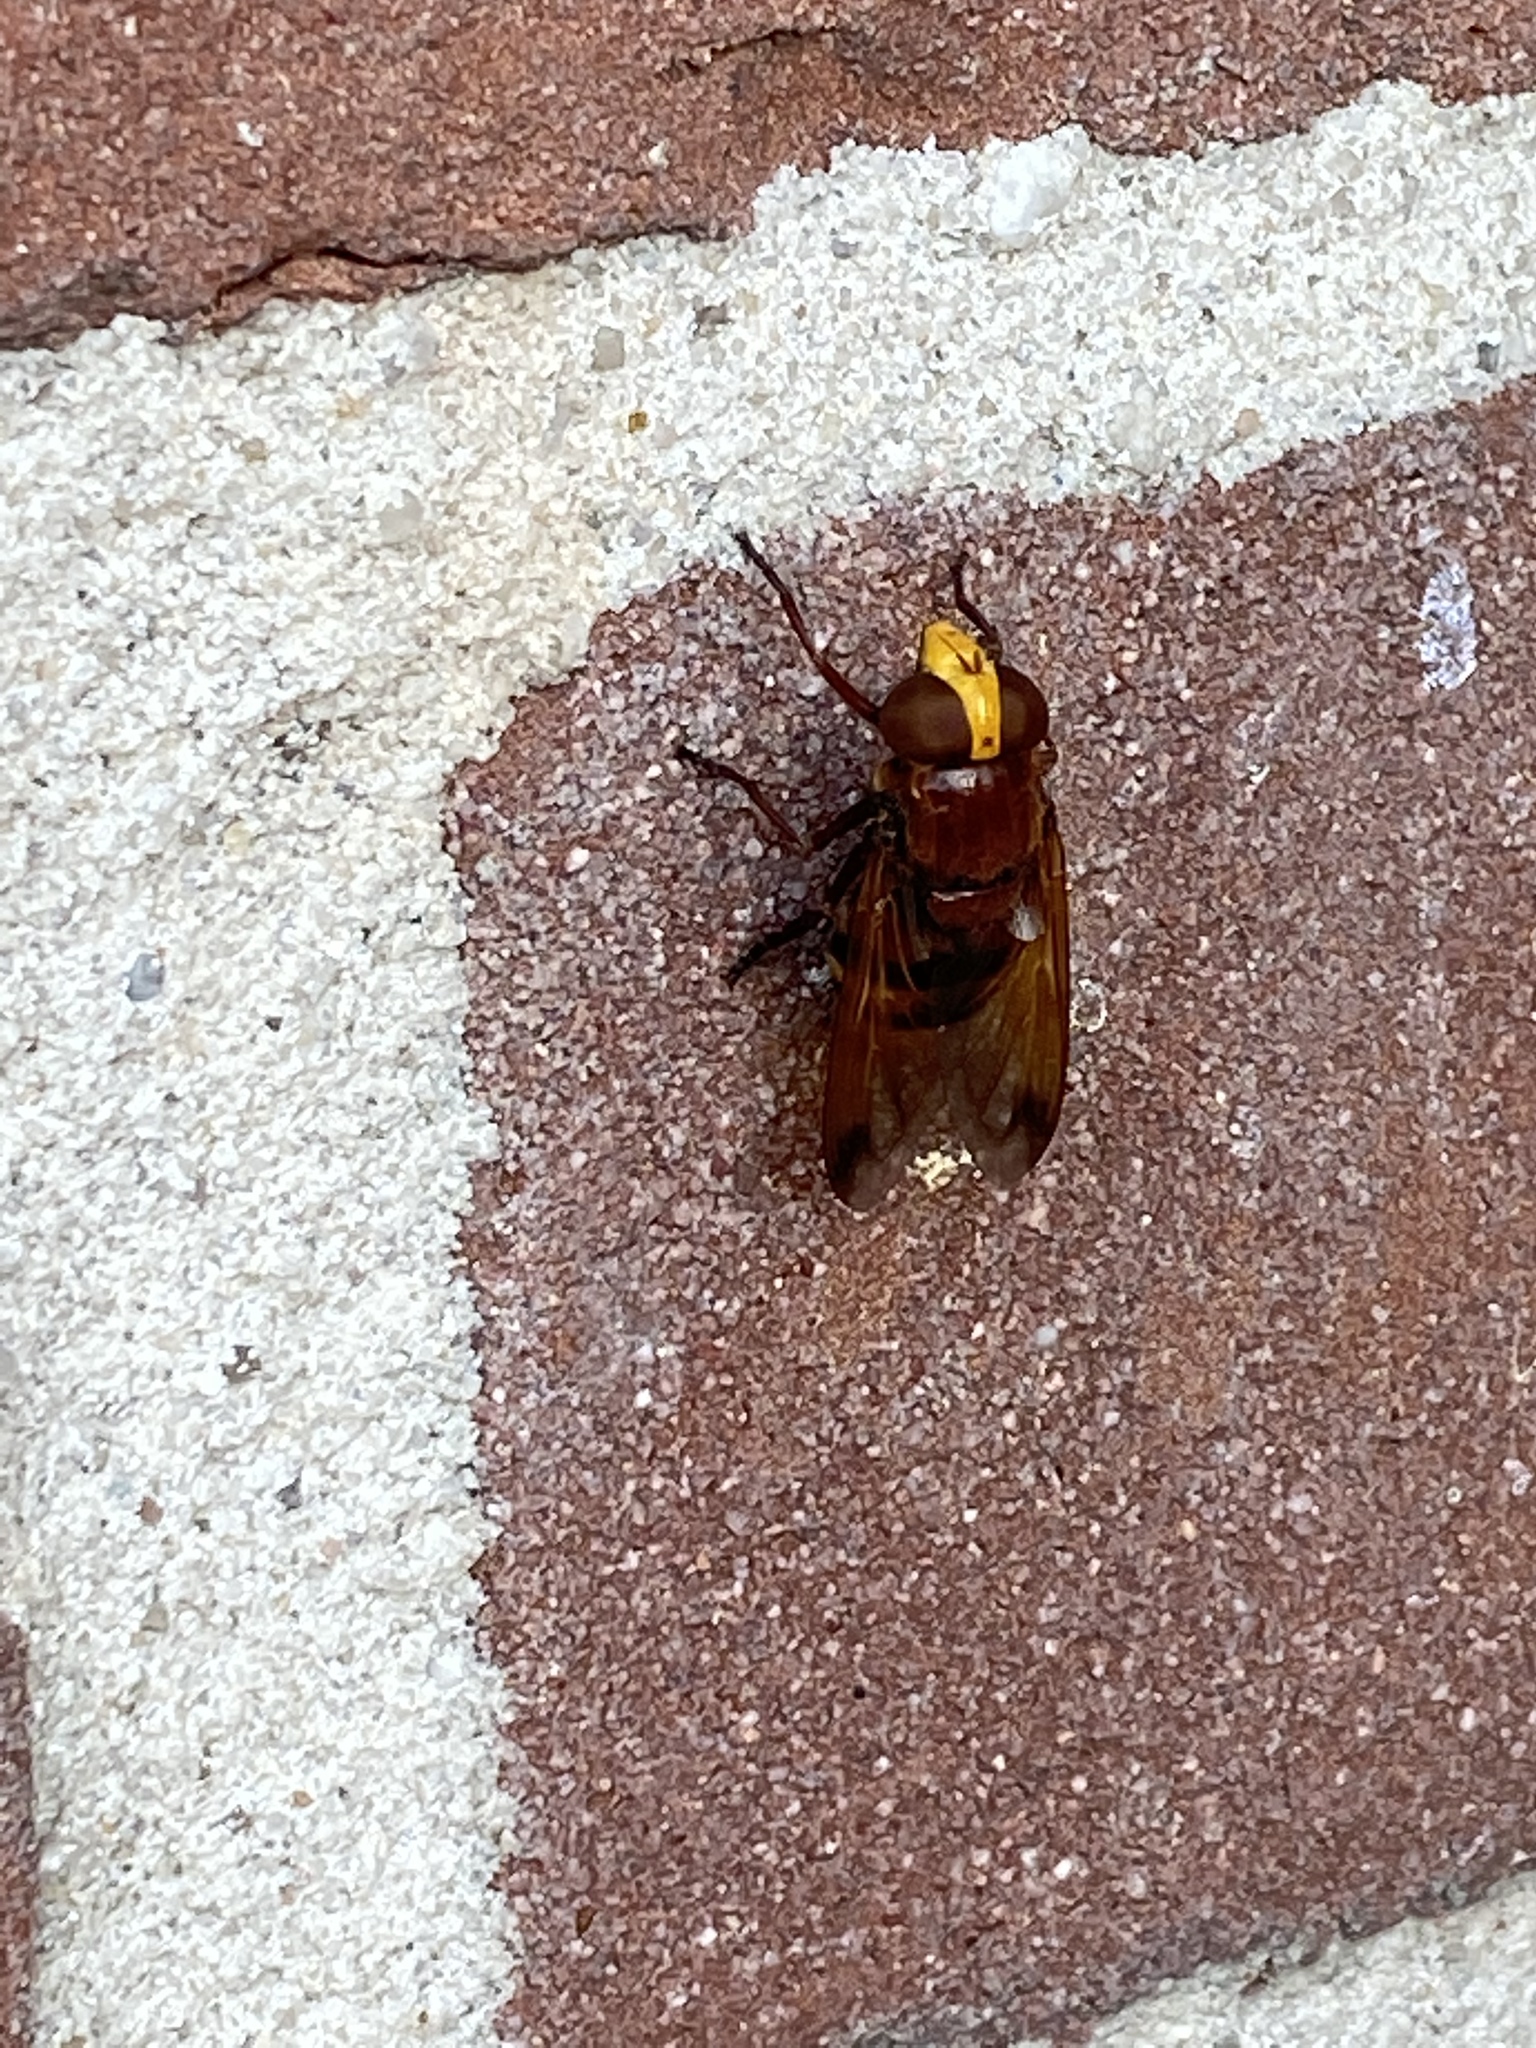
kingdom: Animalia
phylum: Arthropoda
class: Insecta
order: Diptera
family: Syrphidae
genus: Volucella
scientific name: Volucella zonaria
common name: Hornet hoverfly
